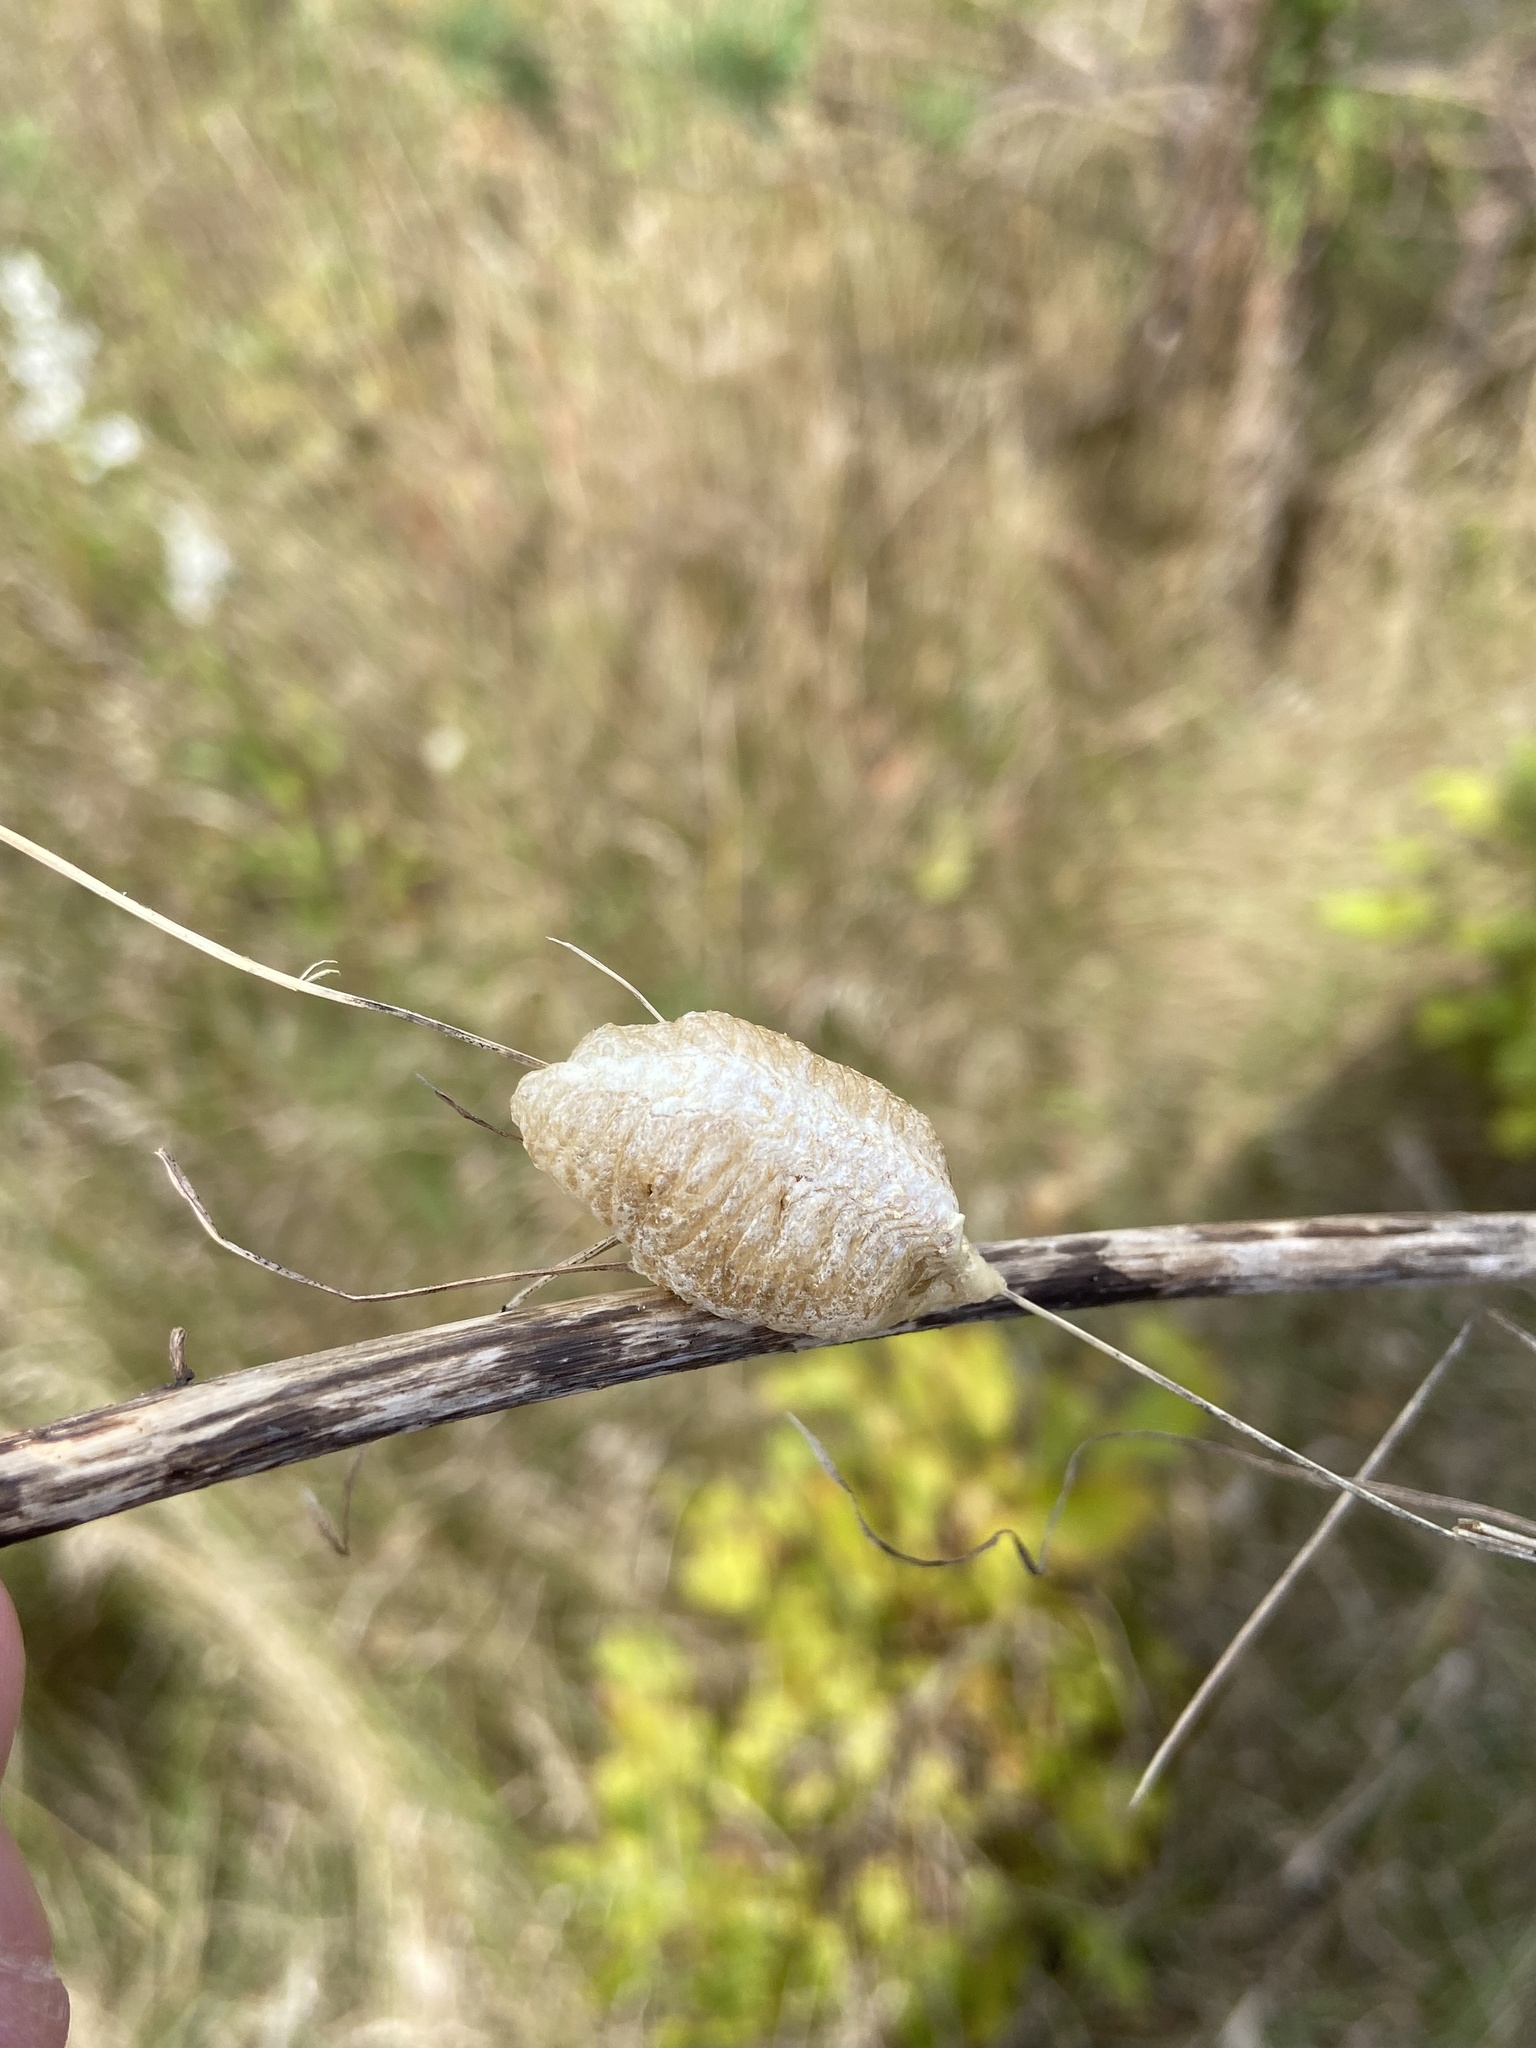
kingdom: Animalia
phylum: Arthropoda
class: Insecta
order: Mantodea
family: Mantidae
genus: Mantis
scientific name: Mantis religiosa
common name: Praying mantis
